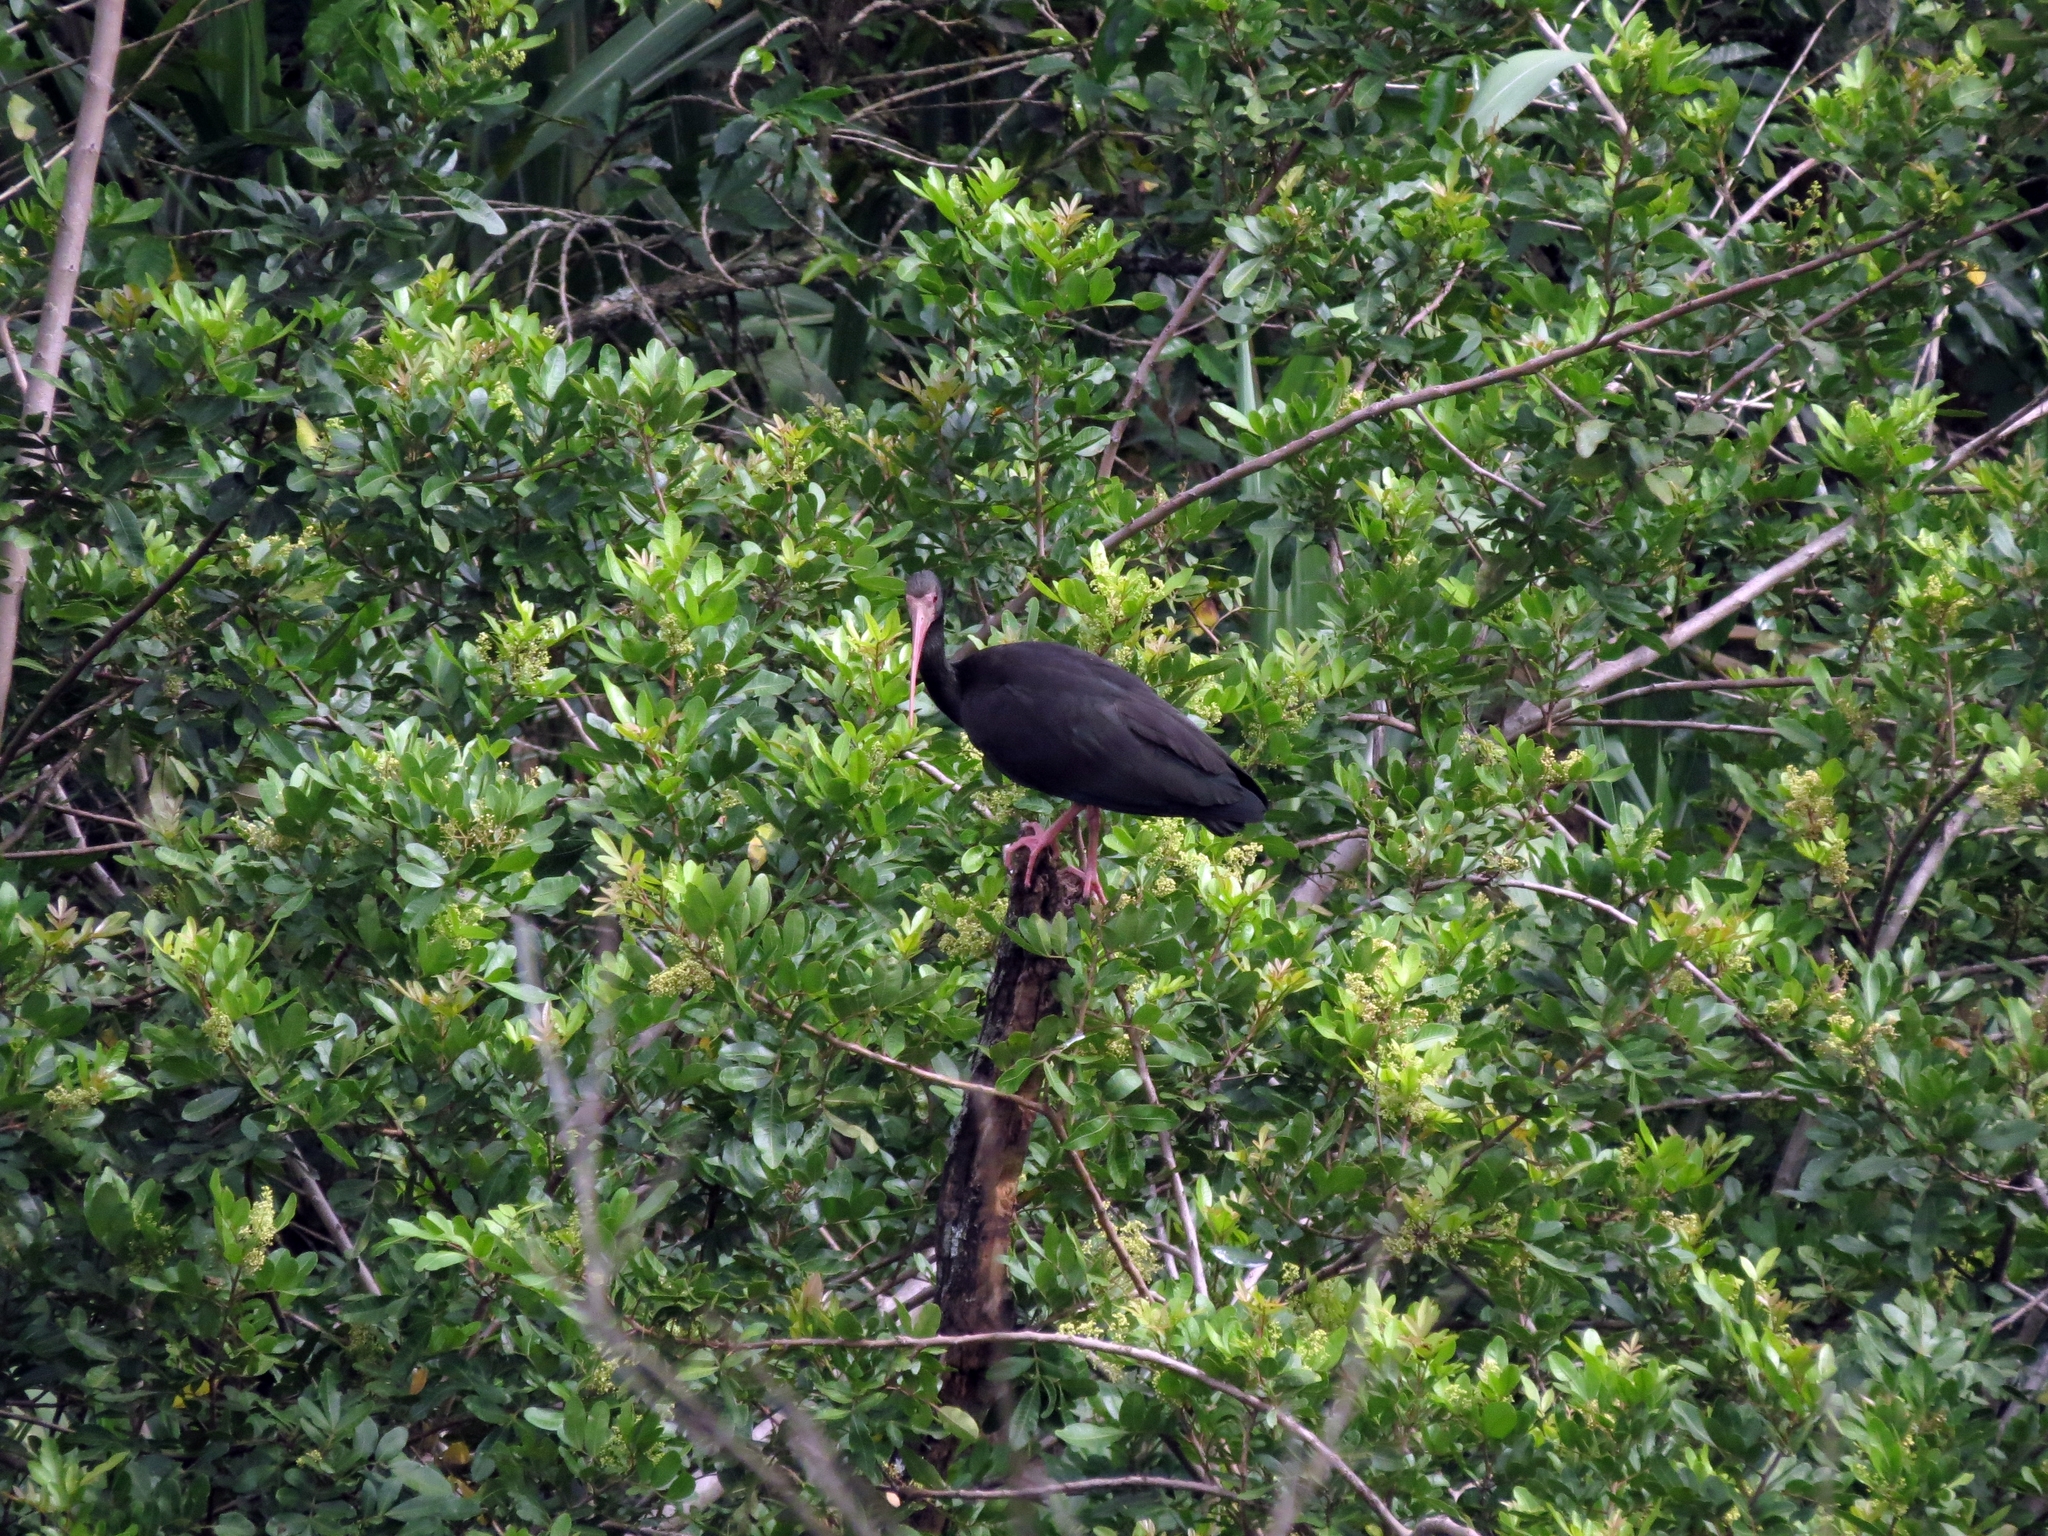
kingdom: Animalia
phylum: Chordata
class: Aves
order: Pelecaniformes
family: Threskiornithidae
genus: Phimosus
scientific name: Phimosus infuscatus
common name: Bare-faced ibis
